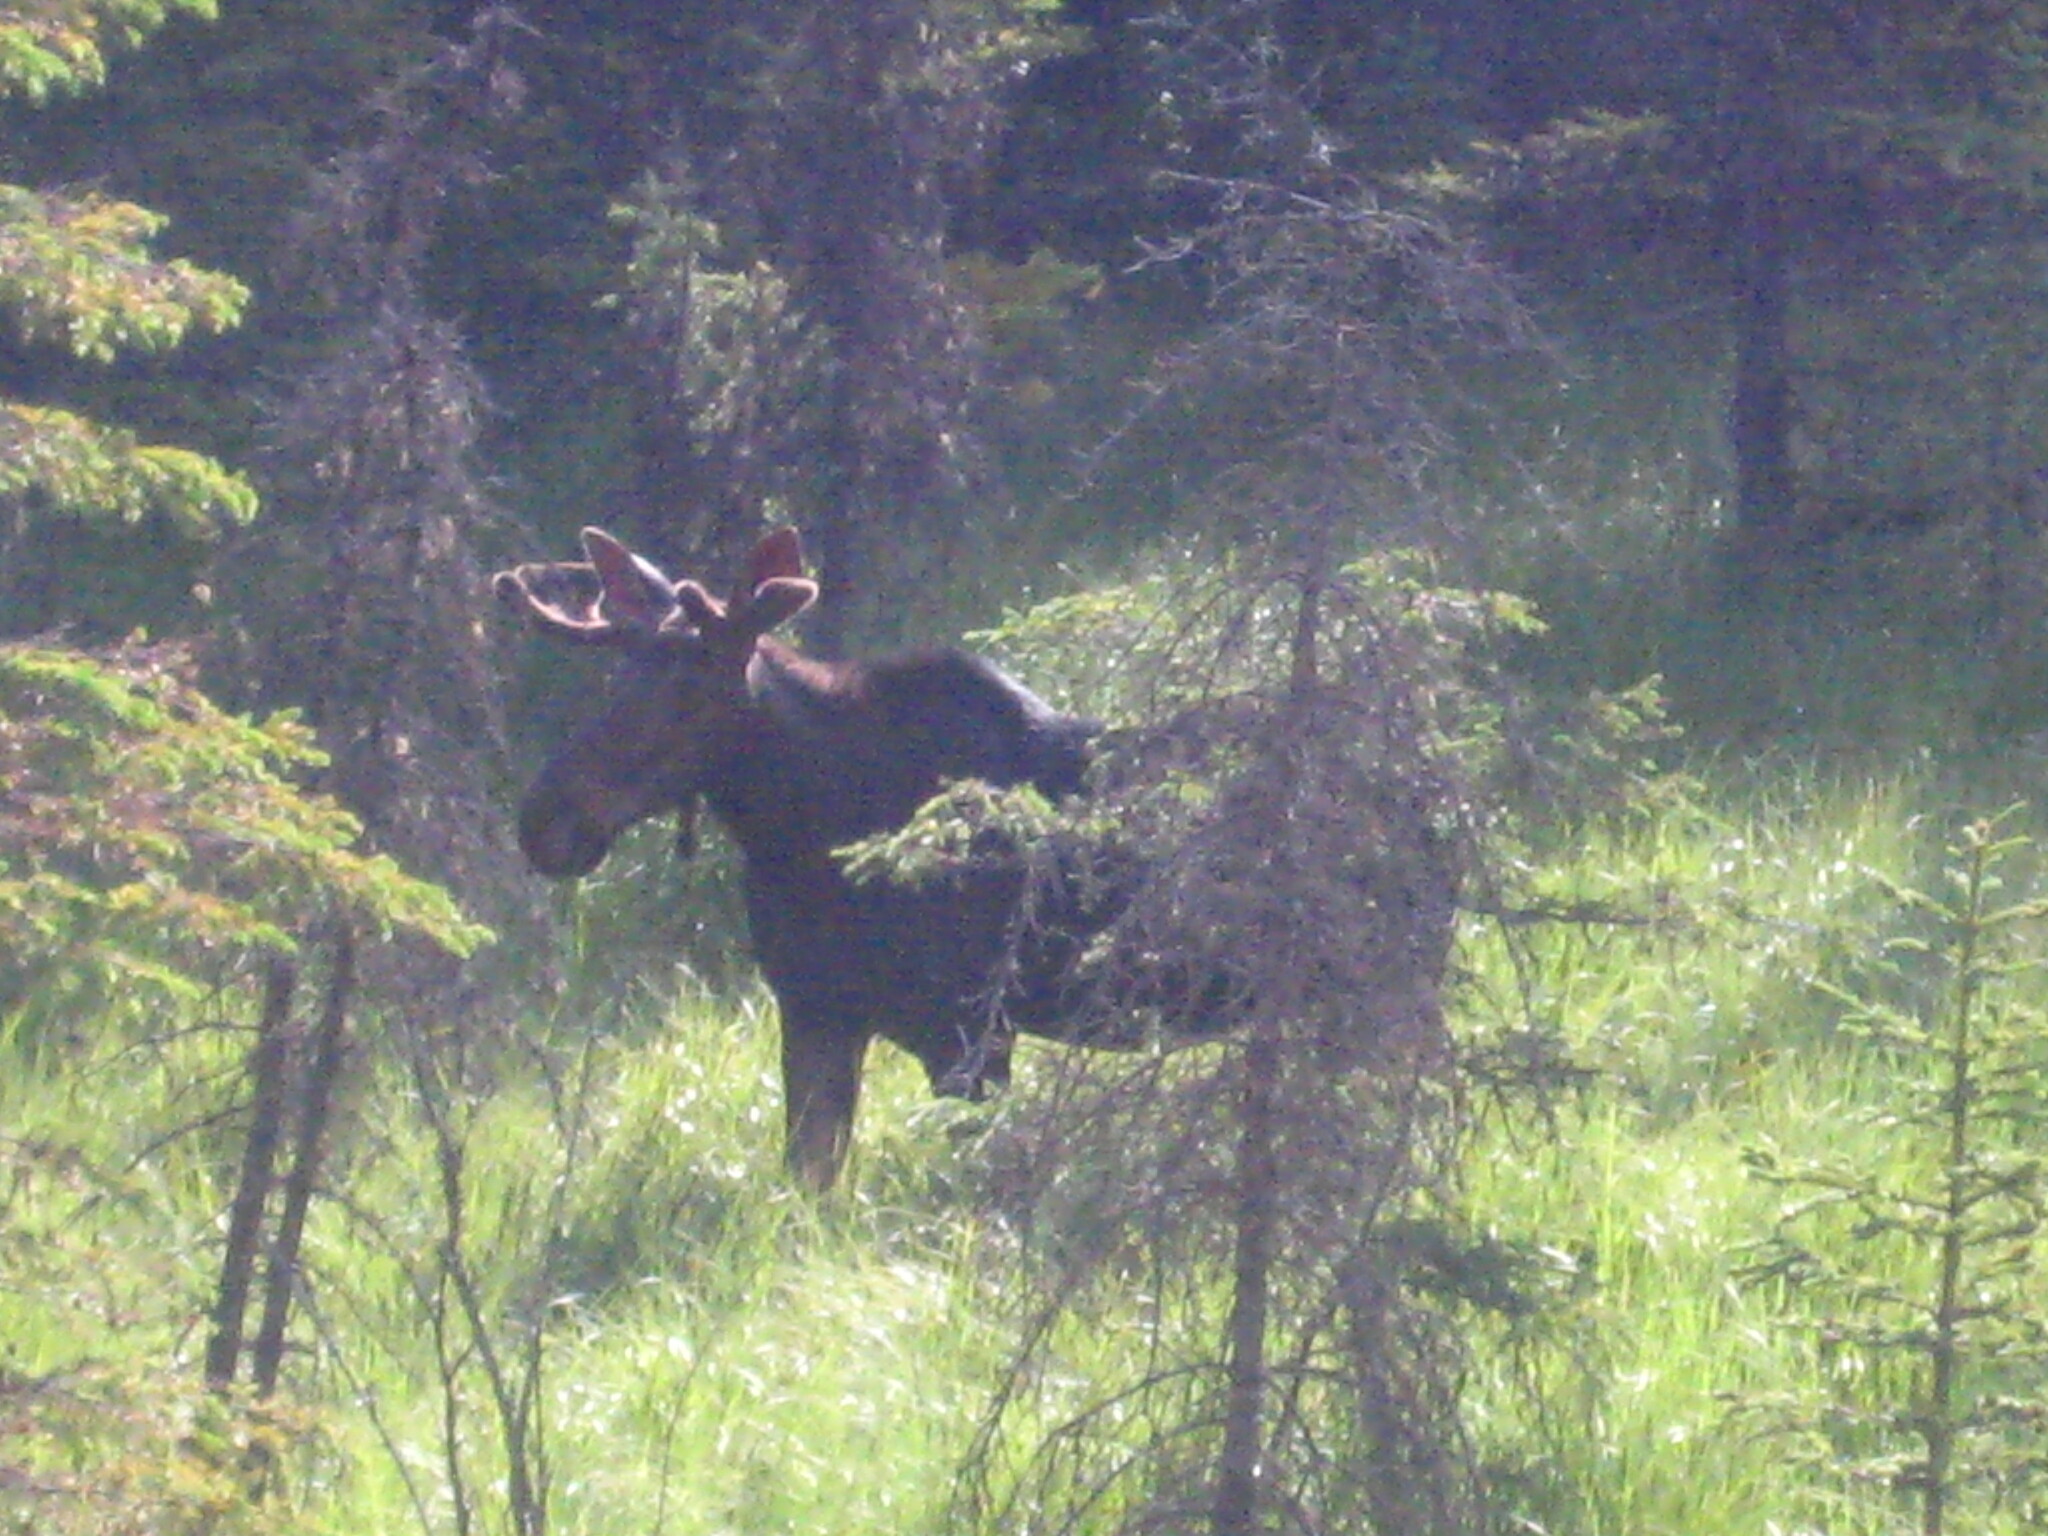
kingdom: Animalia
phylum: Chordata
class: Mammalia
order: Artiodactyla
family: Cervidae
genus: Alces
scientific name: Alces alces
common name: Moose
